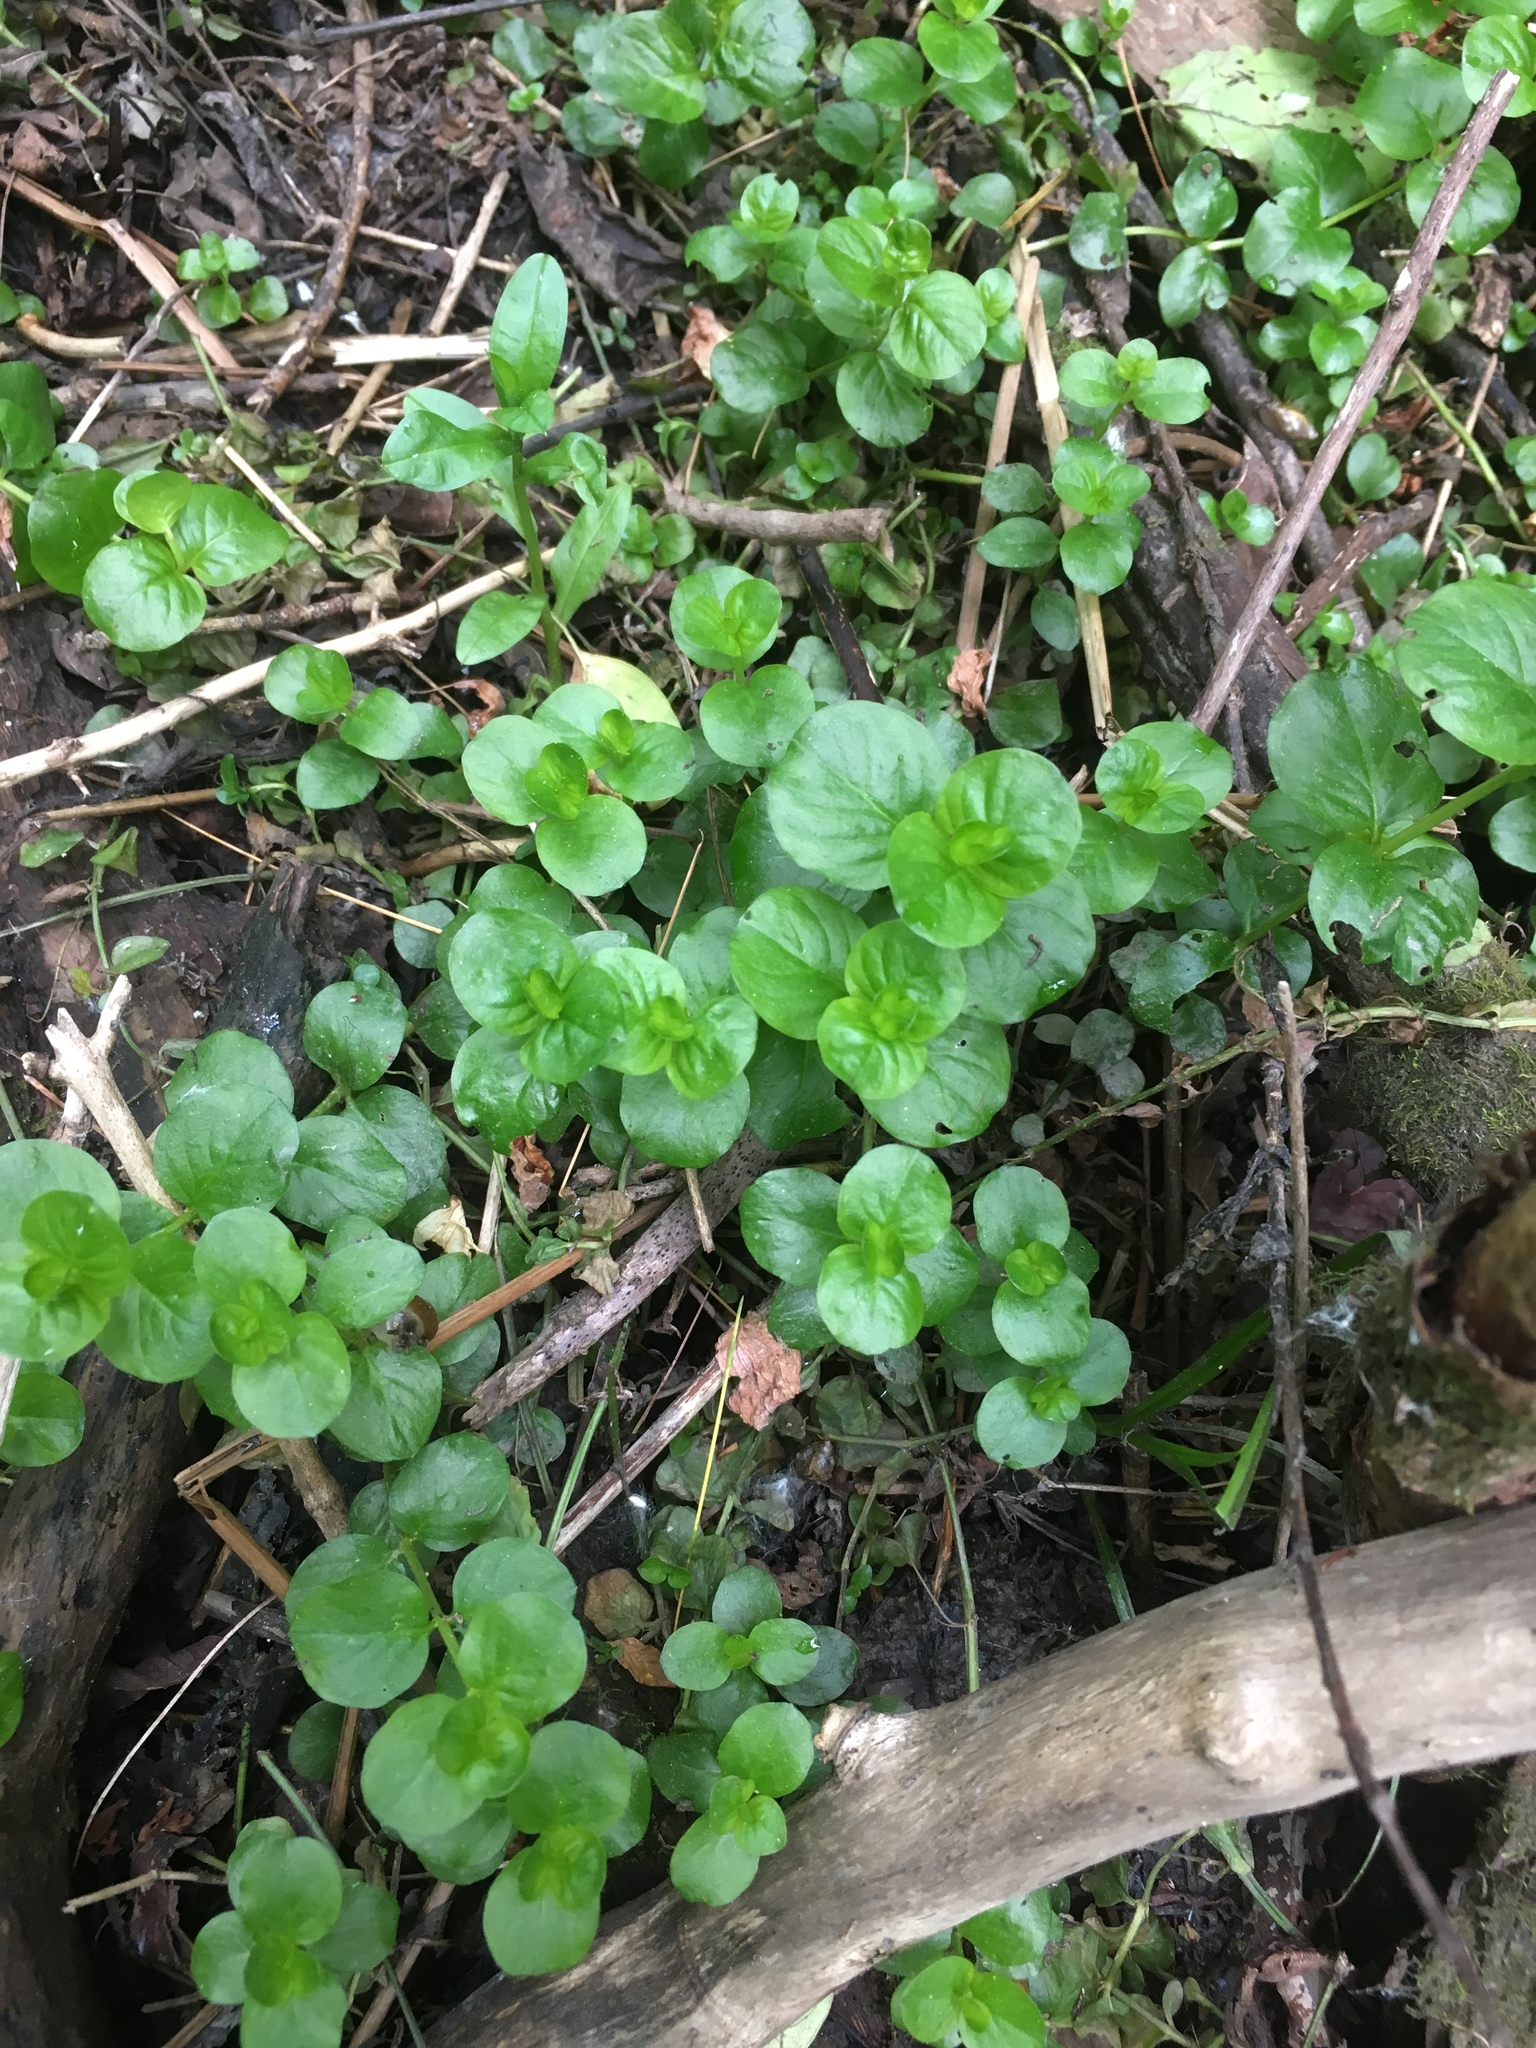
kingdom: Plantae
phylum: Tracheophyta
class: Magnoliopsida
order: Ericales
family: Primulaceae
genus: Lysimachia
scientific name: Lysimachia nummularia
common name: Moneywort
